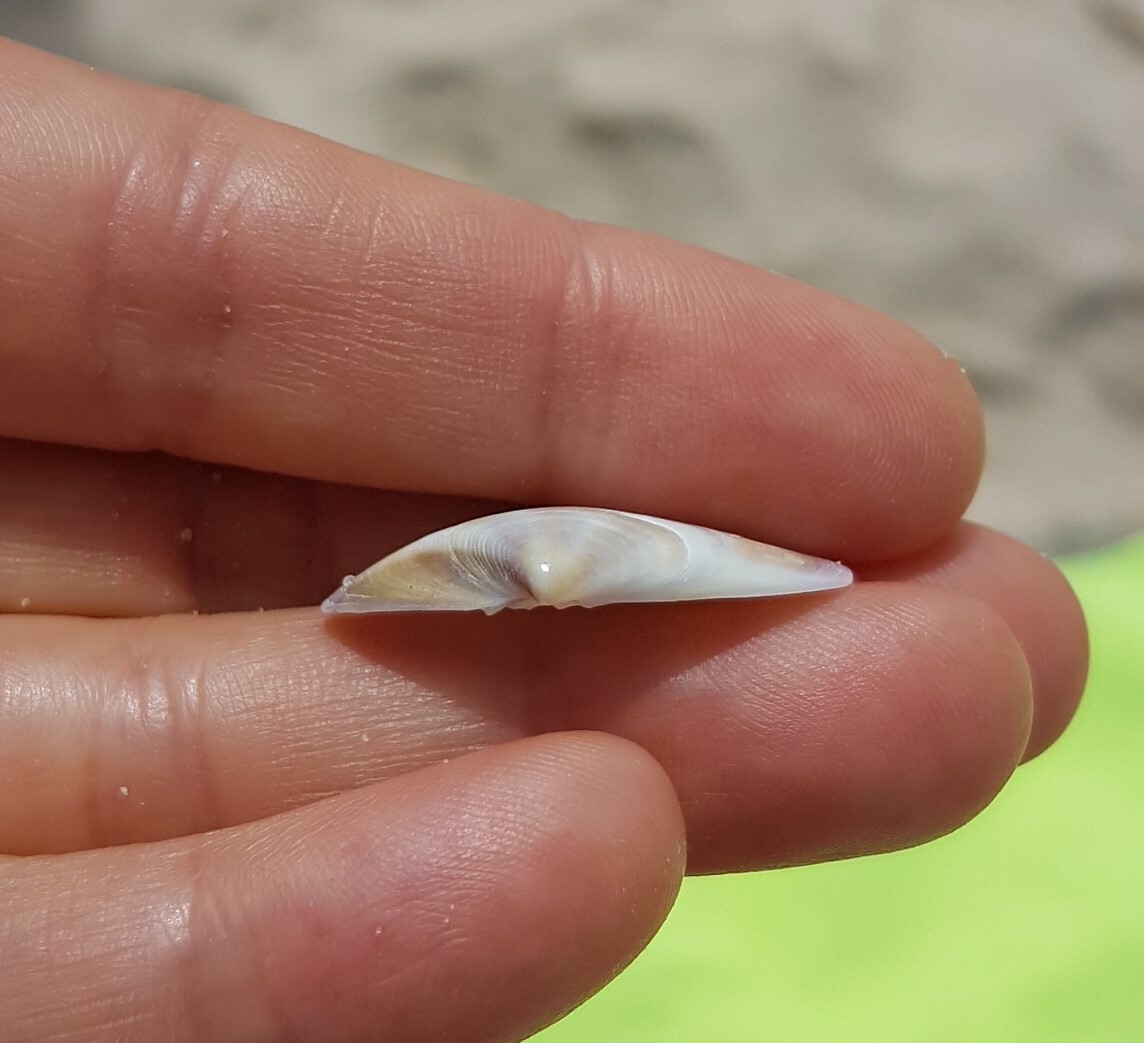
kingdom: Animalia
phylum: Mollusca
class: Bivalvia
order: Cardiida
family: Donacidae
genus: Donax
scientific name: Donax vittatus
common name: Banded wedge-shell
